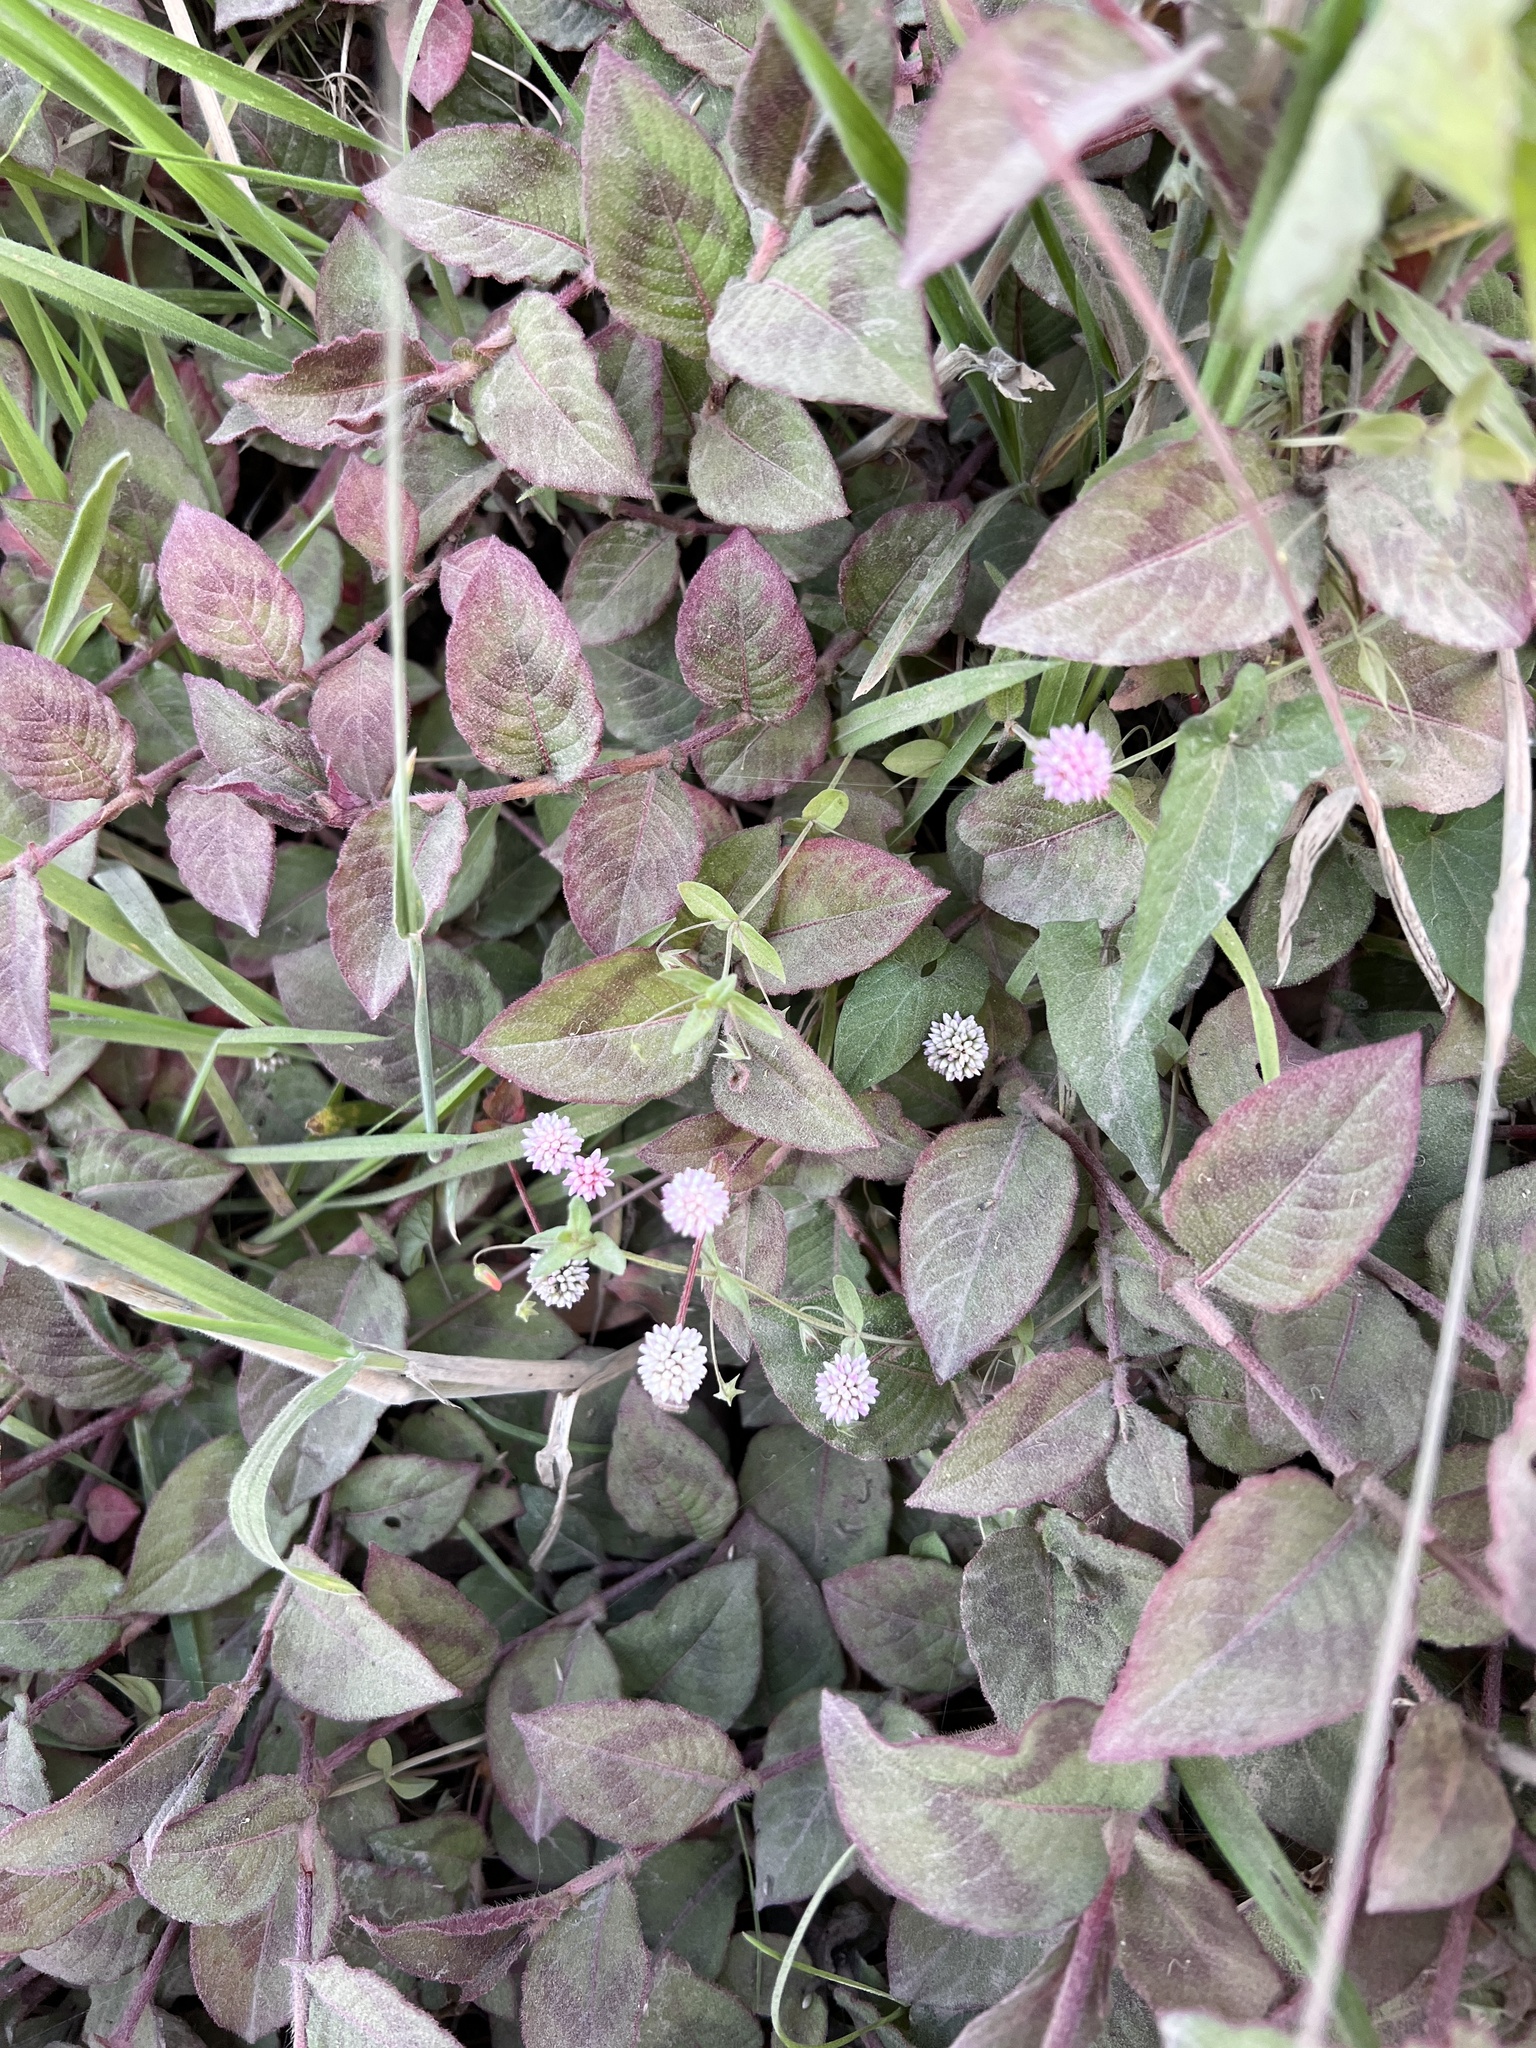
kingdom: Plantae
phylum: Tracheophyta
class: Magnoliopsida
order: Caryophyllales
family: Polygonaceae
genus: Persicaria
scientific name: Persicaria capitata
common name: Pinkhead smartweed
